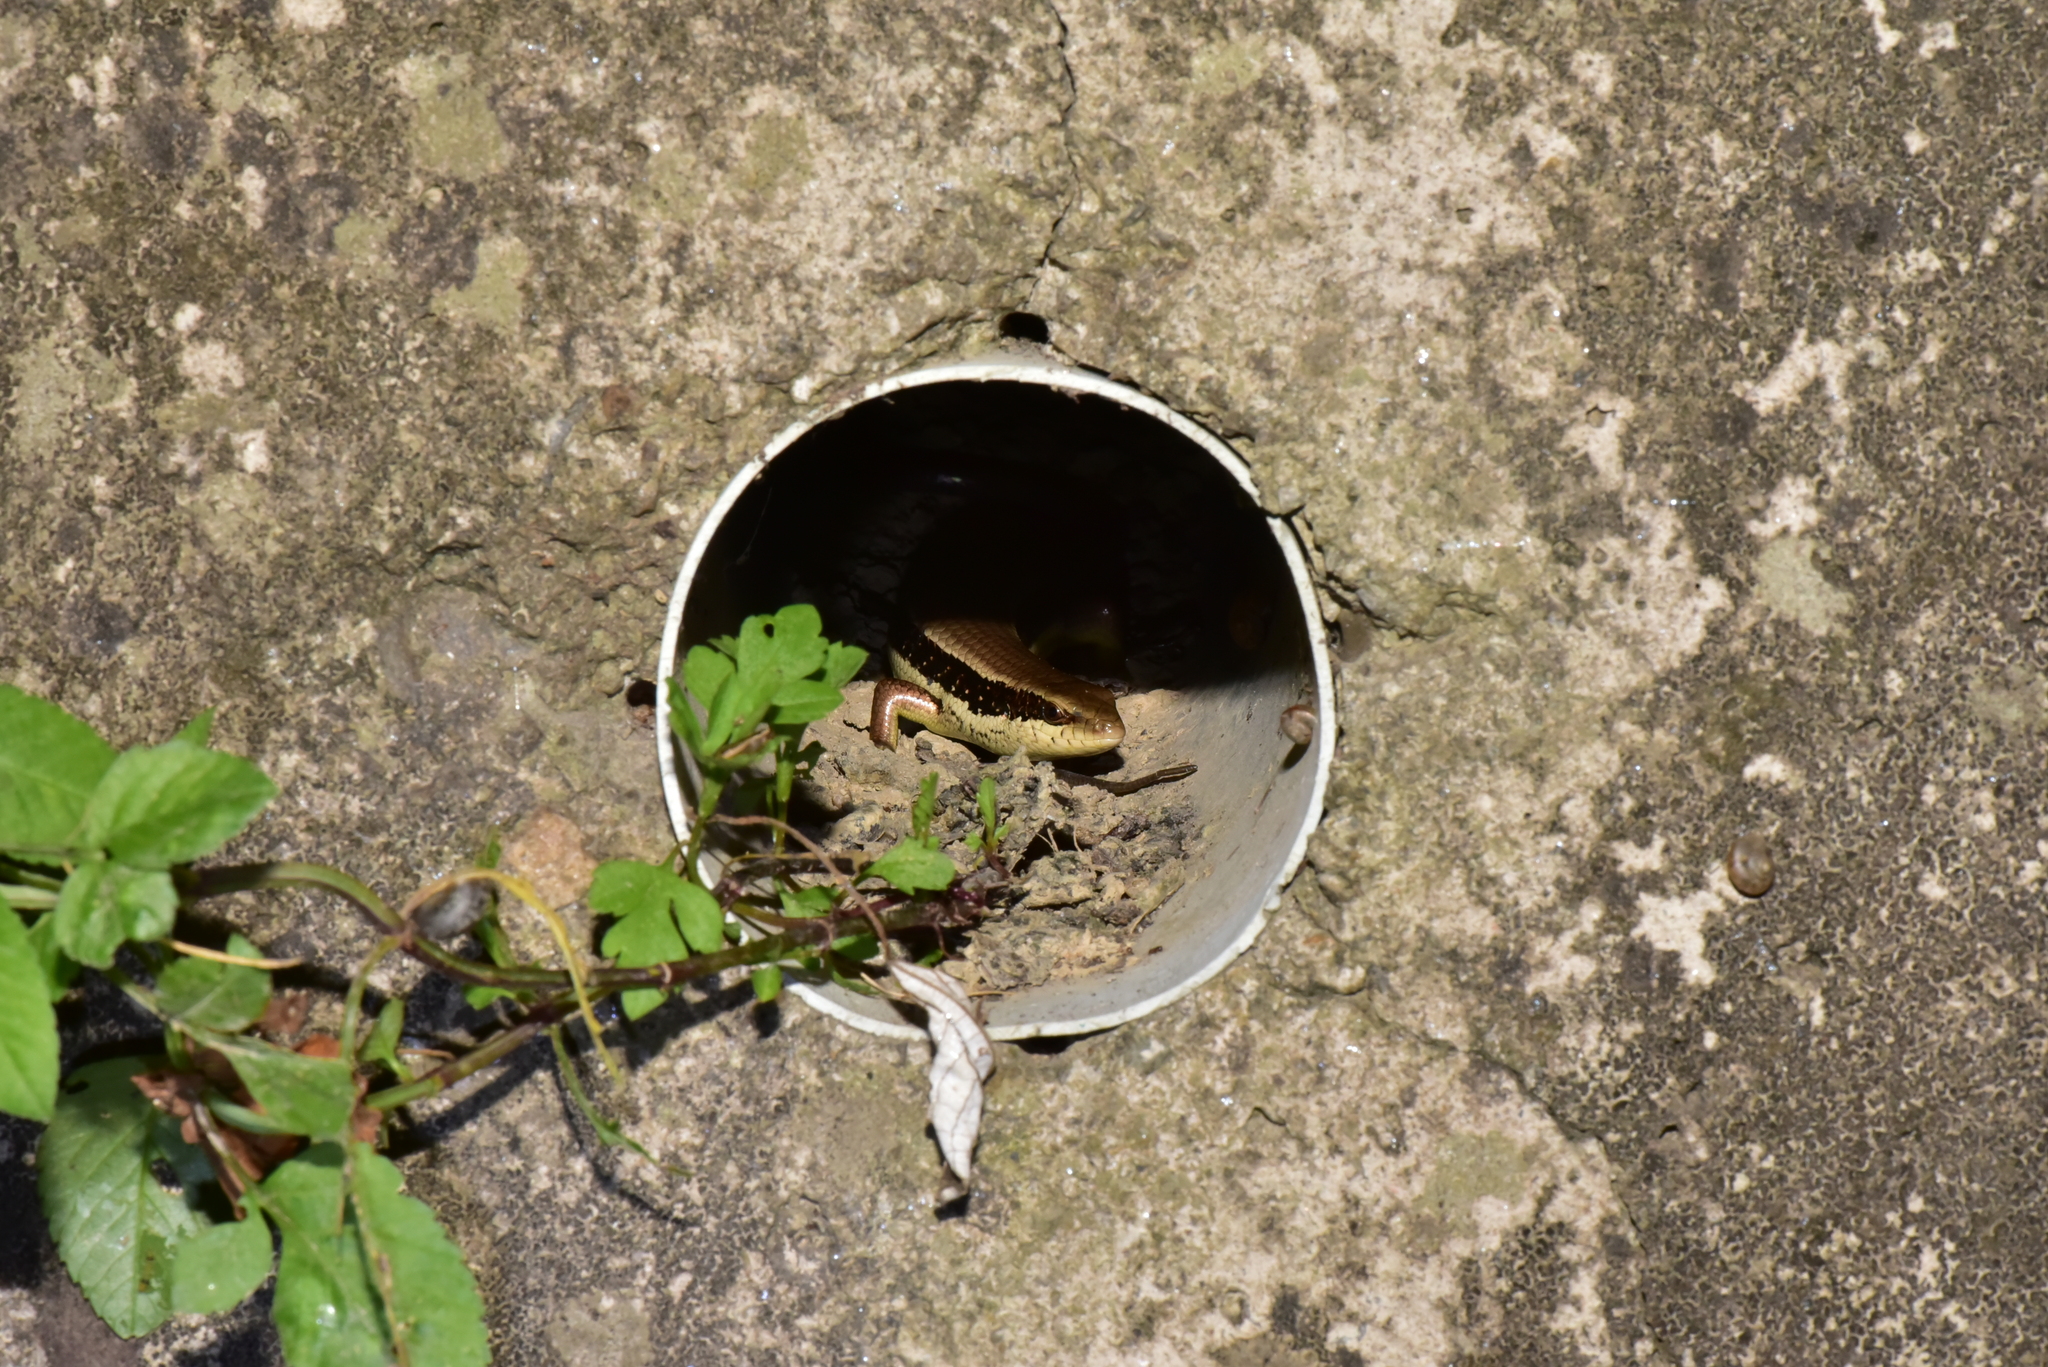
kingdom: Animalia
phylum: Chordata
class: Squamata
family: Scincidae
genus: Eutropis
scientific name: Eutropis longicaudata
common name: Long-tailed sun skink
